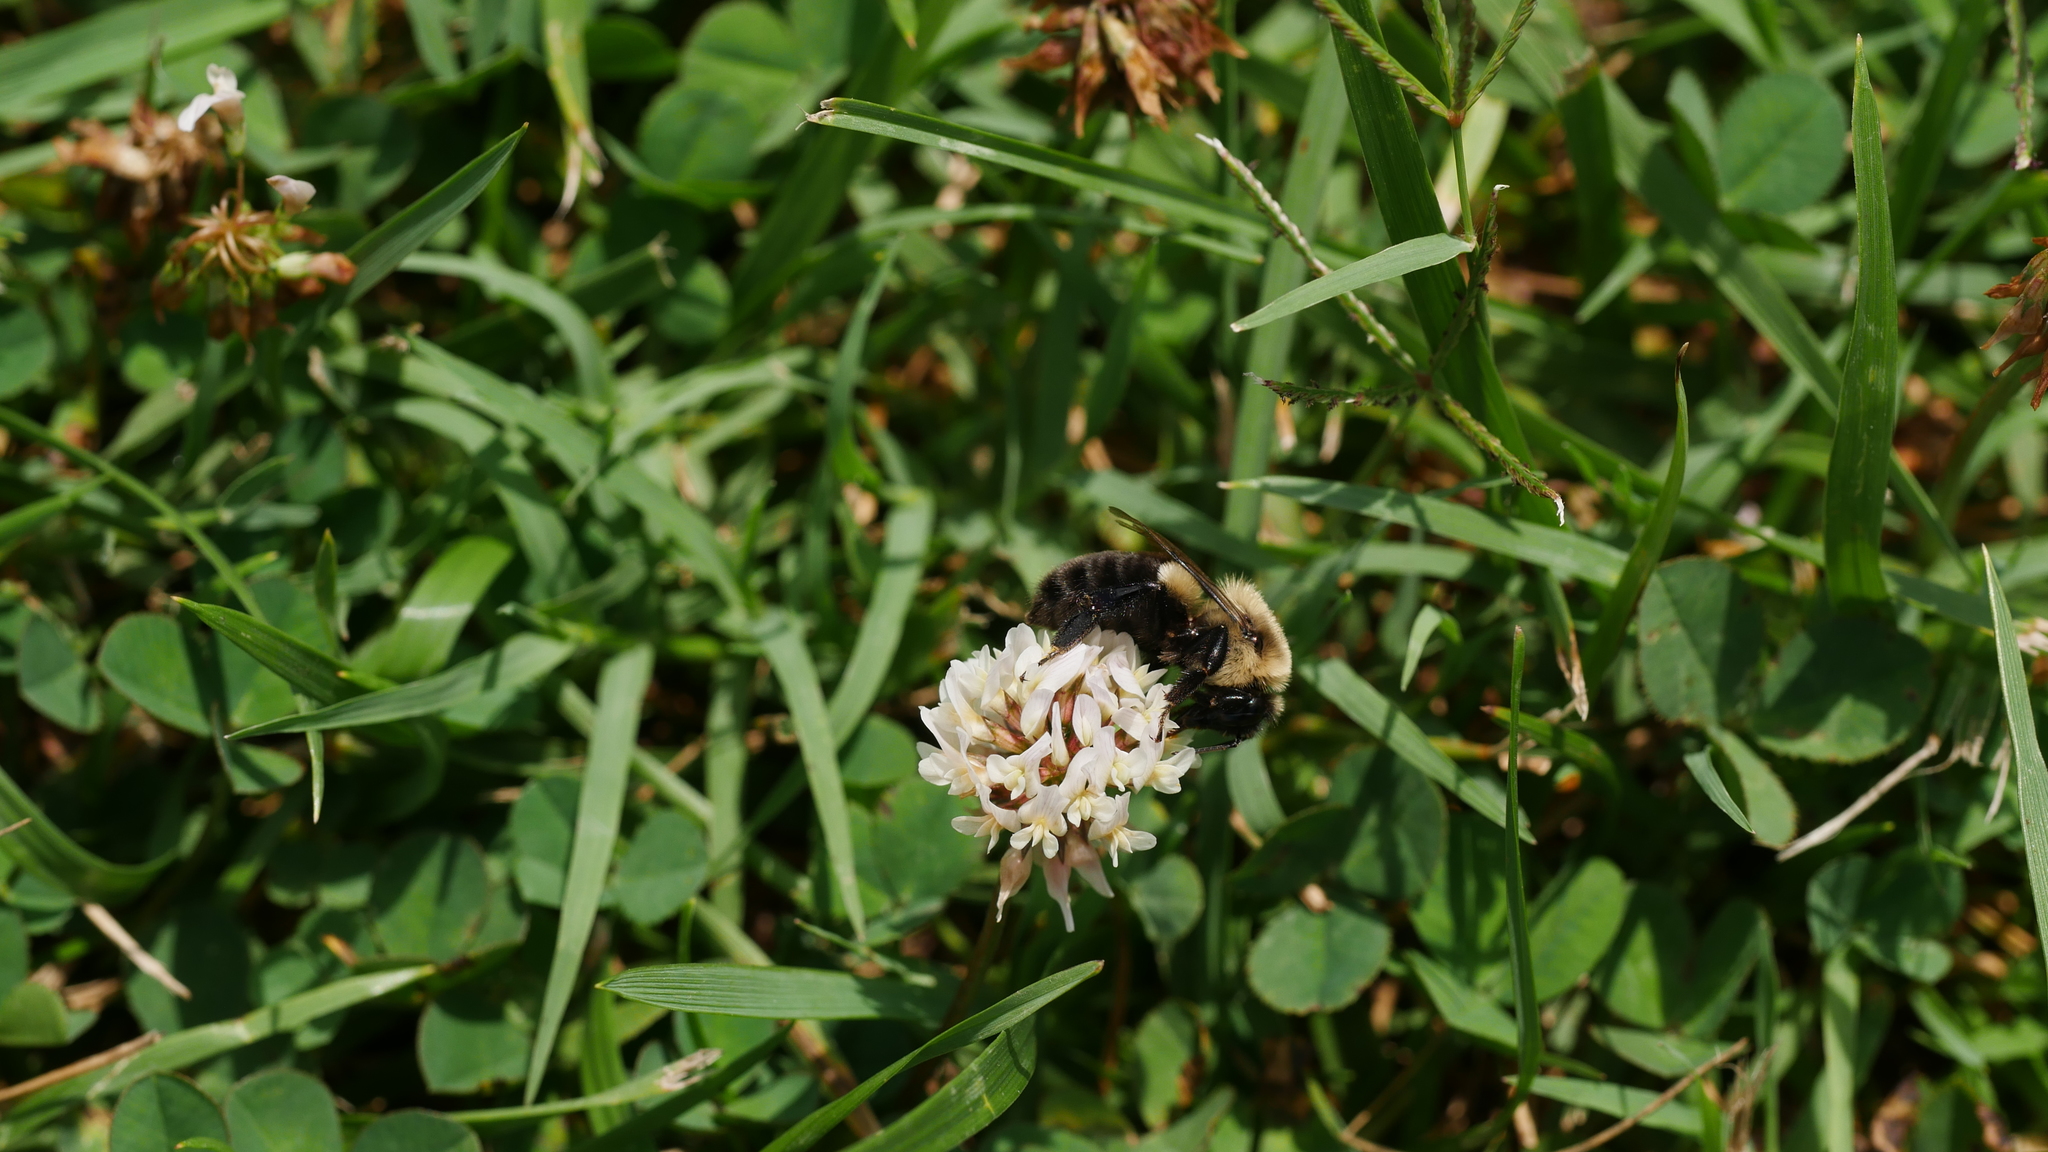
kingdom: Animalia
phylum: Arthropoda
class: Insecta
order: Hymenoptera
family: Apidae
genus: Bombus
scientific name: Bombus impatiens
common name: Common eastern bumble bee
